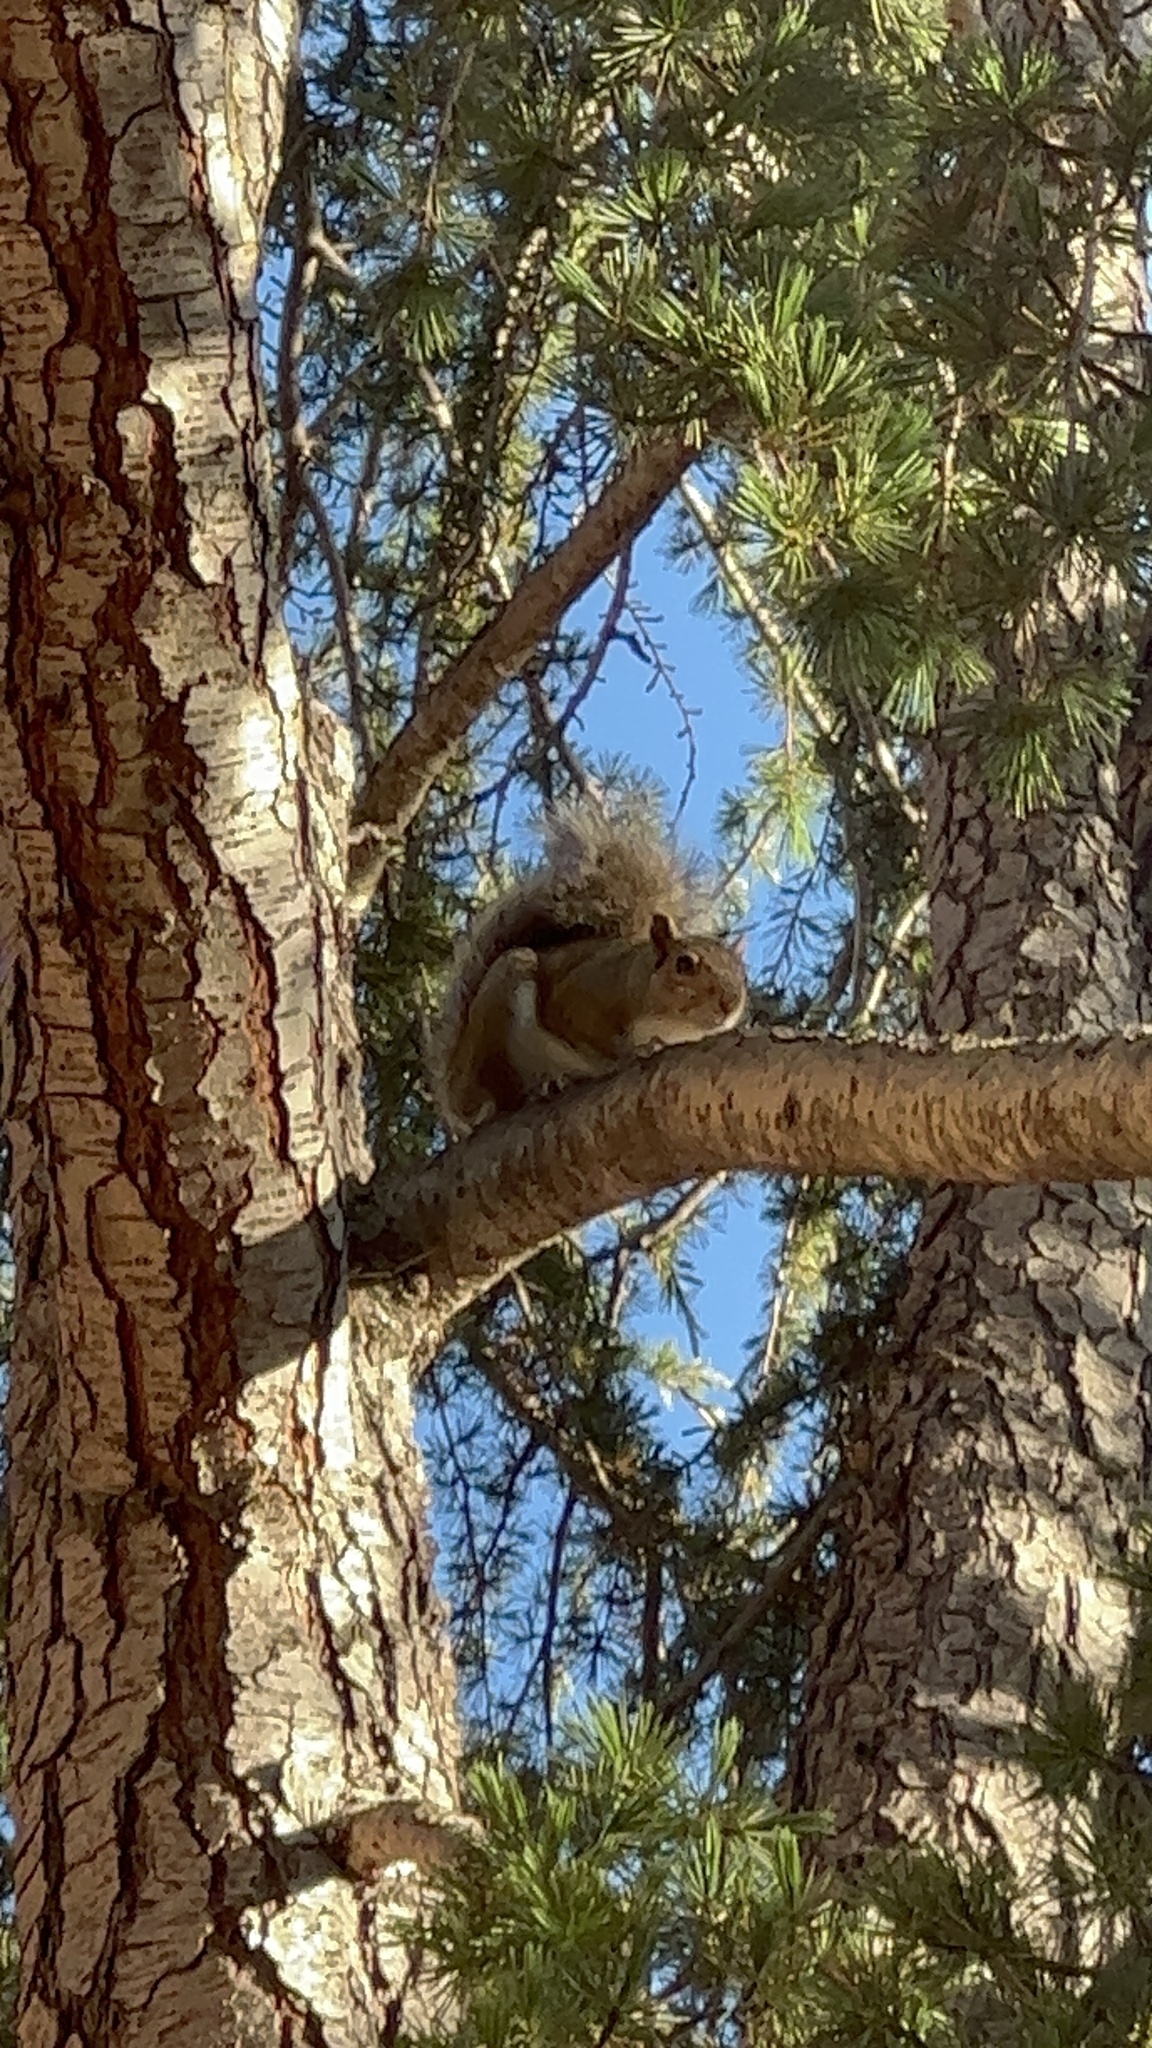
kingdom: Animalia
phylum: Chordata
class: Mammalia
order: Rodentia
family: Sciuridae
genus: Sciurus
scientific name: Sciurus carolinensis
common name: Eastern gray squirrel
